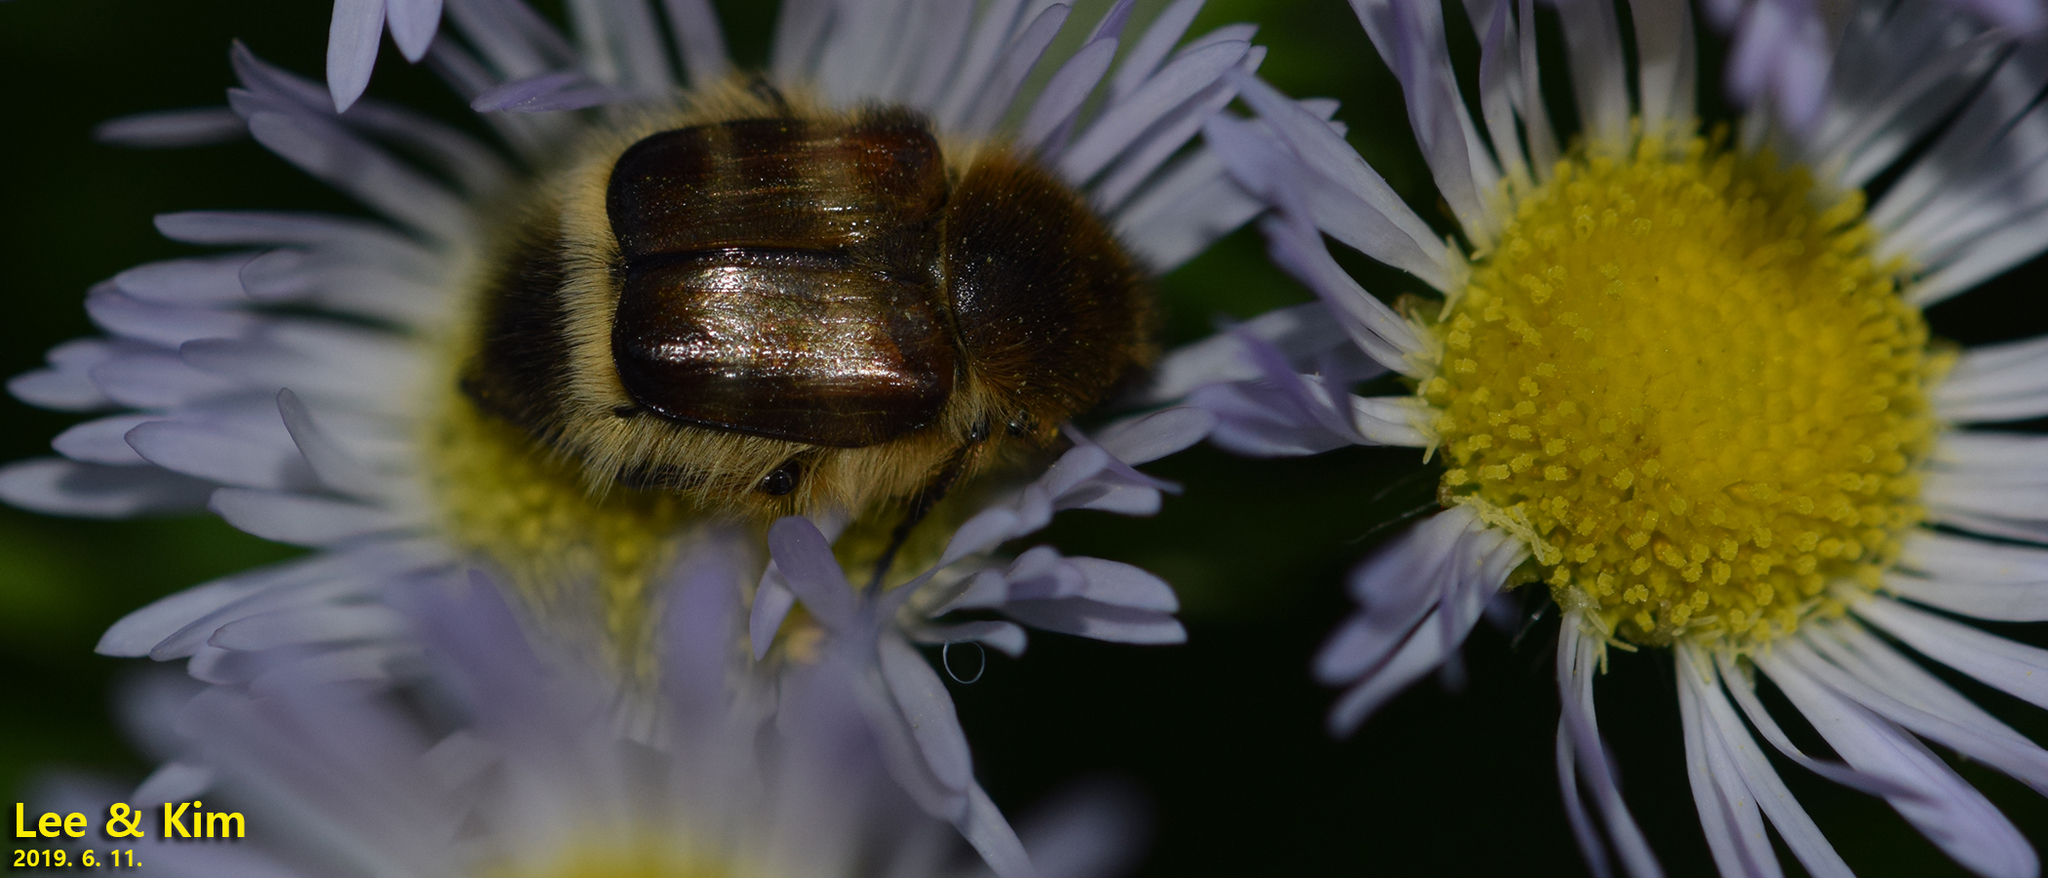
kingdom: Animalia
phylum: Arthropoda
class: Insecta
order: Coleoptera
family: Scarabaeidae
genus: Lasiotrichius
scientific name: Lasiotrichius succinctus
